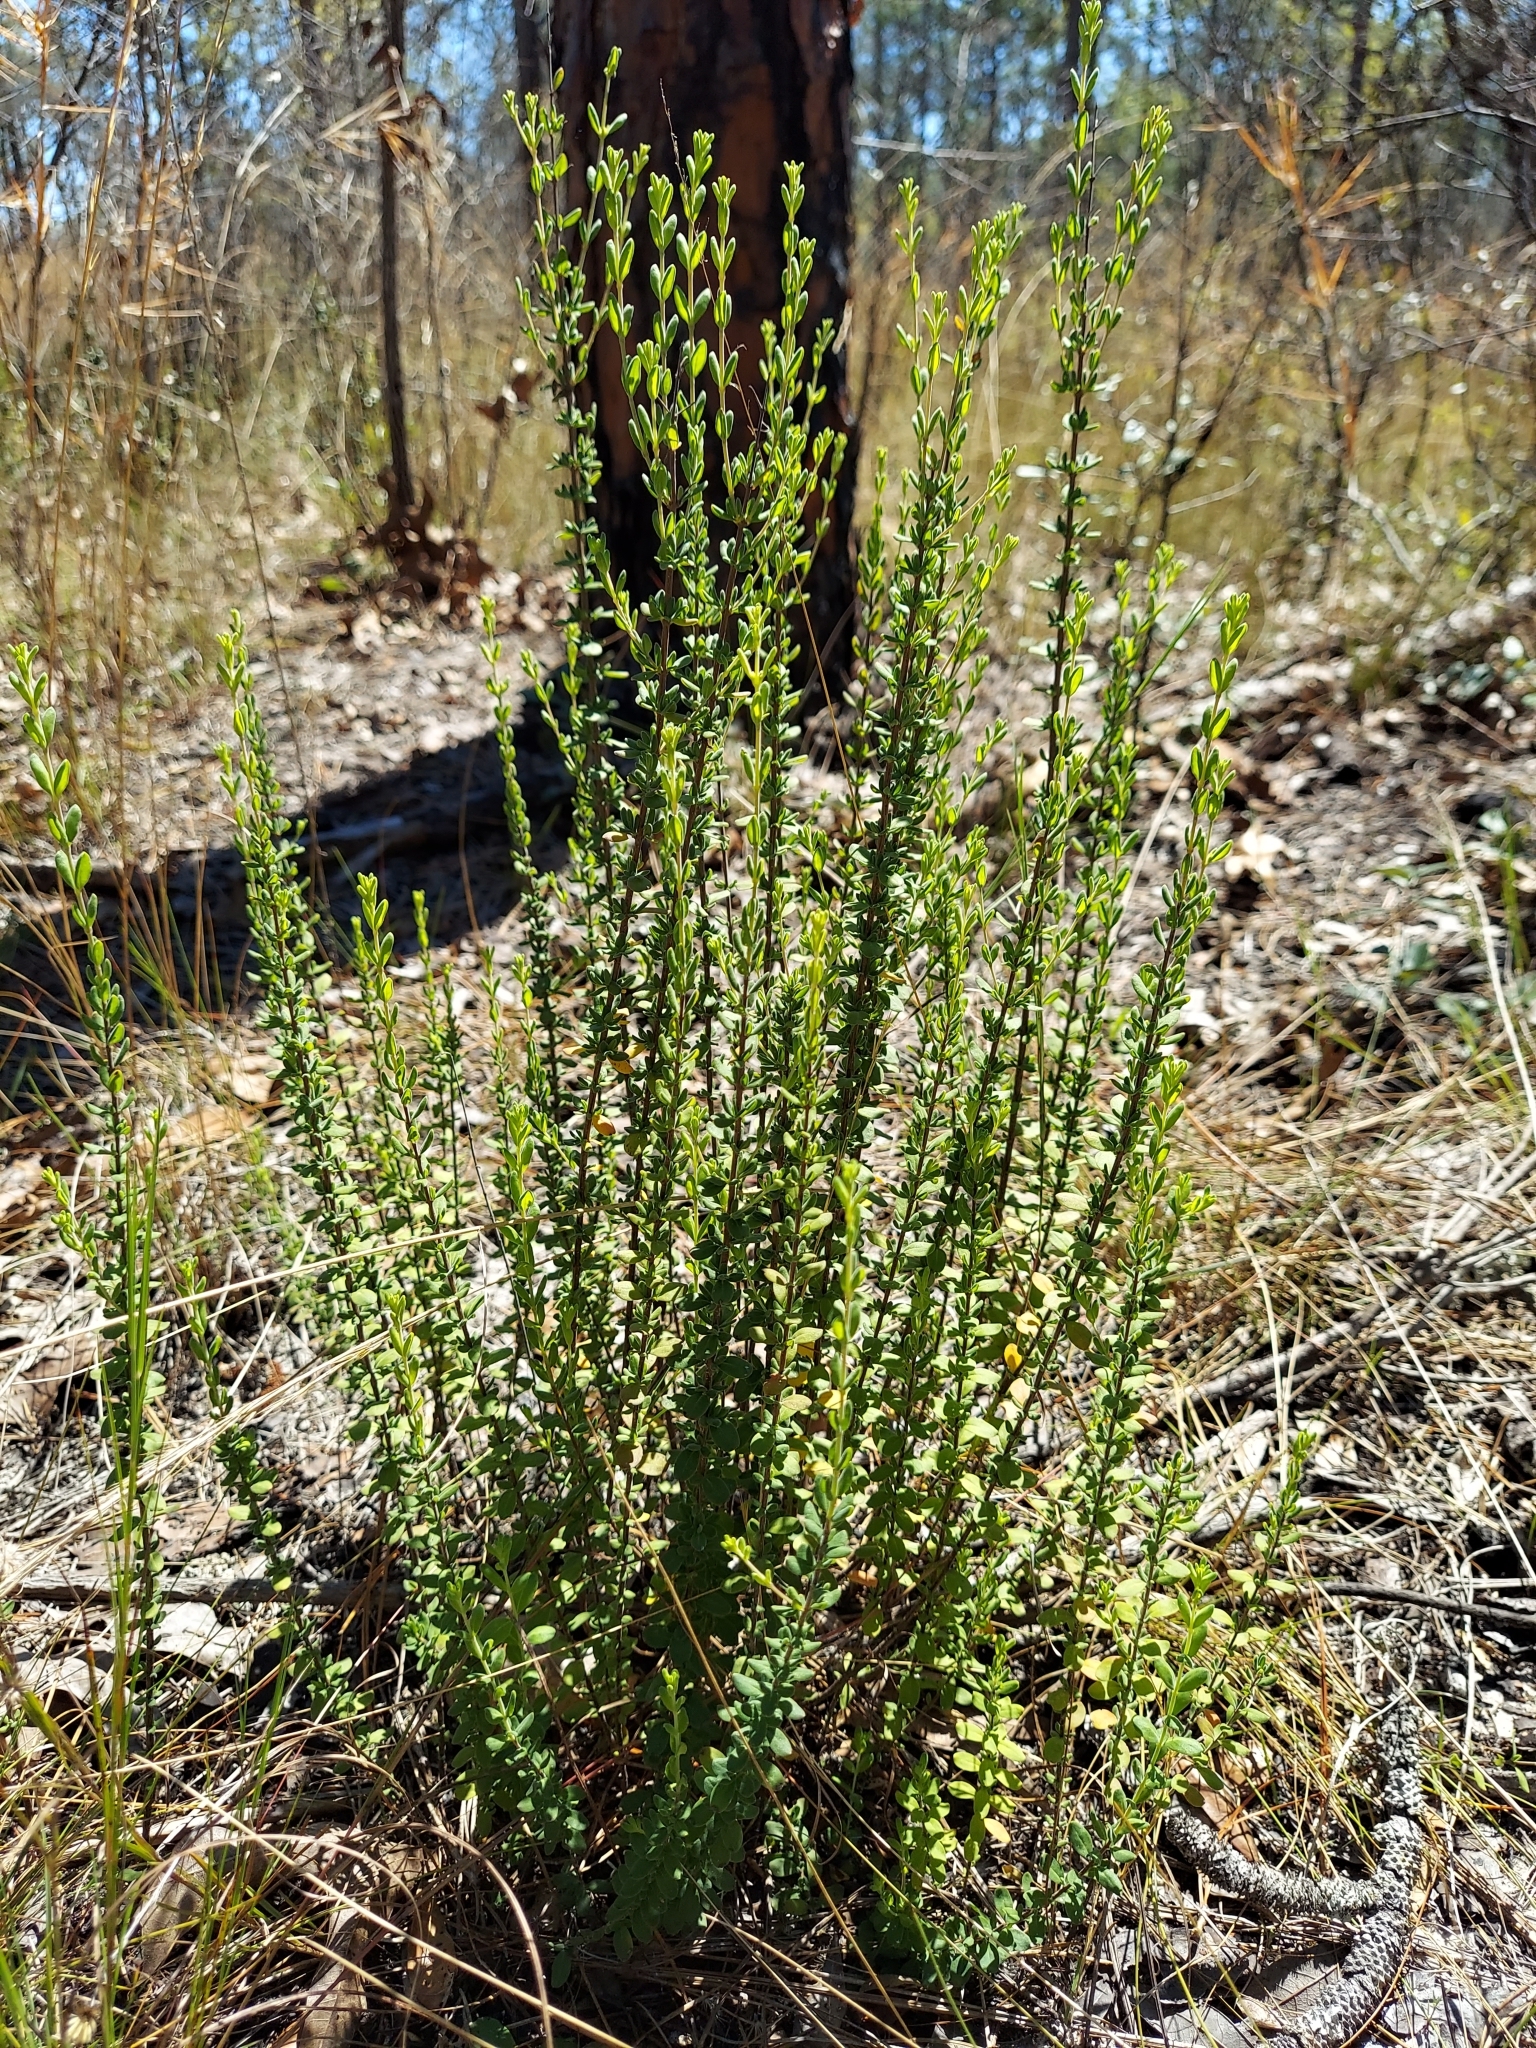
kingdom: Plantae
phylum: Tracheophyta
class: Magnoliopsida
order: Lamiales
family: Lamiaceae
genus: Clinopodium
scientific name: Clinopodium coccineum
